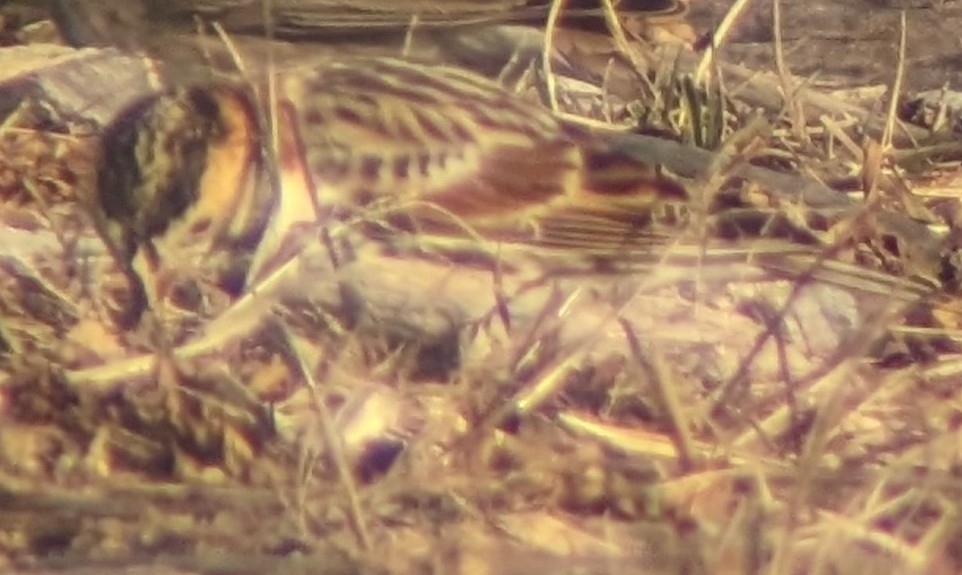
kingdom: Animalia
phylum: Chordata
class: Aves
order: Passeriformes
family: Calcariidae
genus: Calcarius
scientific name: Calcarius lapponicus
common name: Lapland longspur
